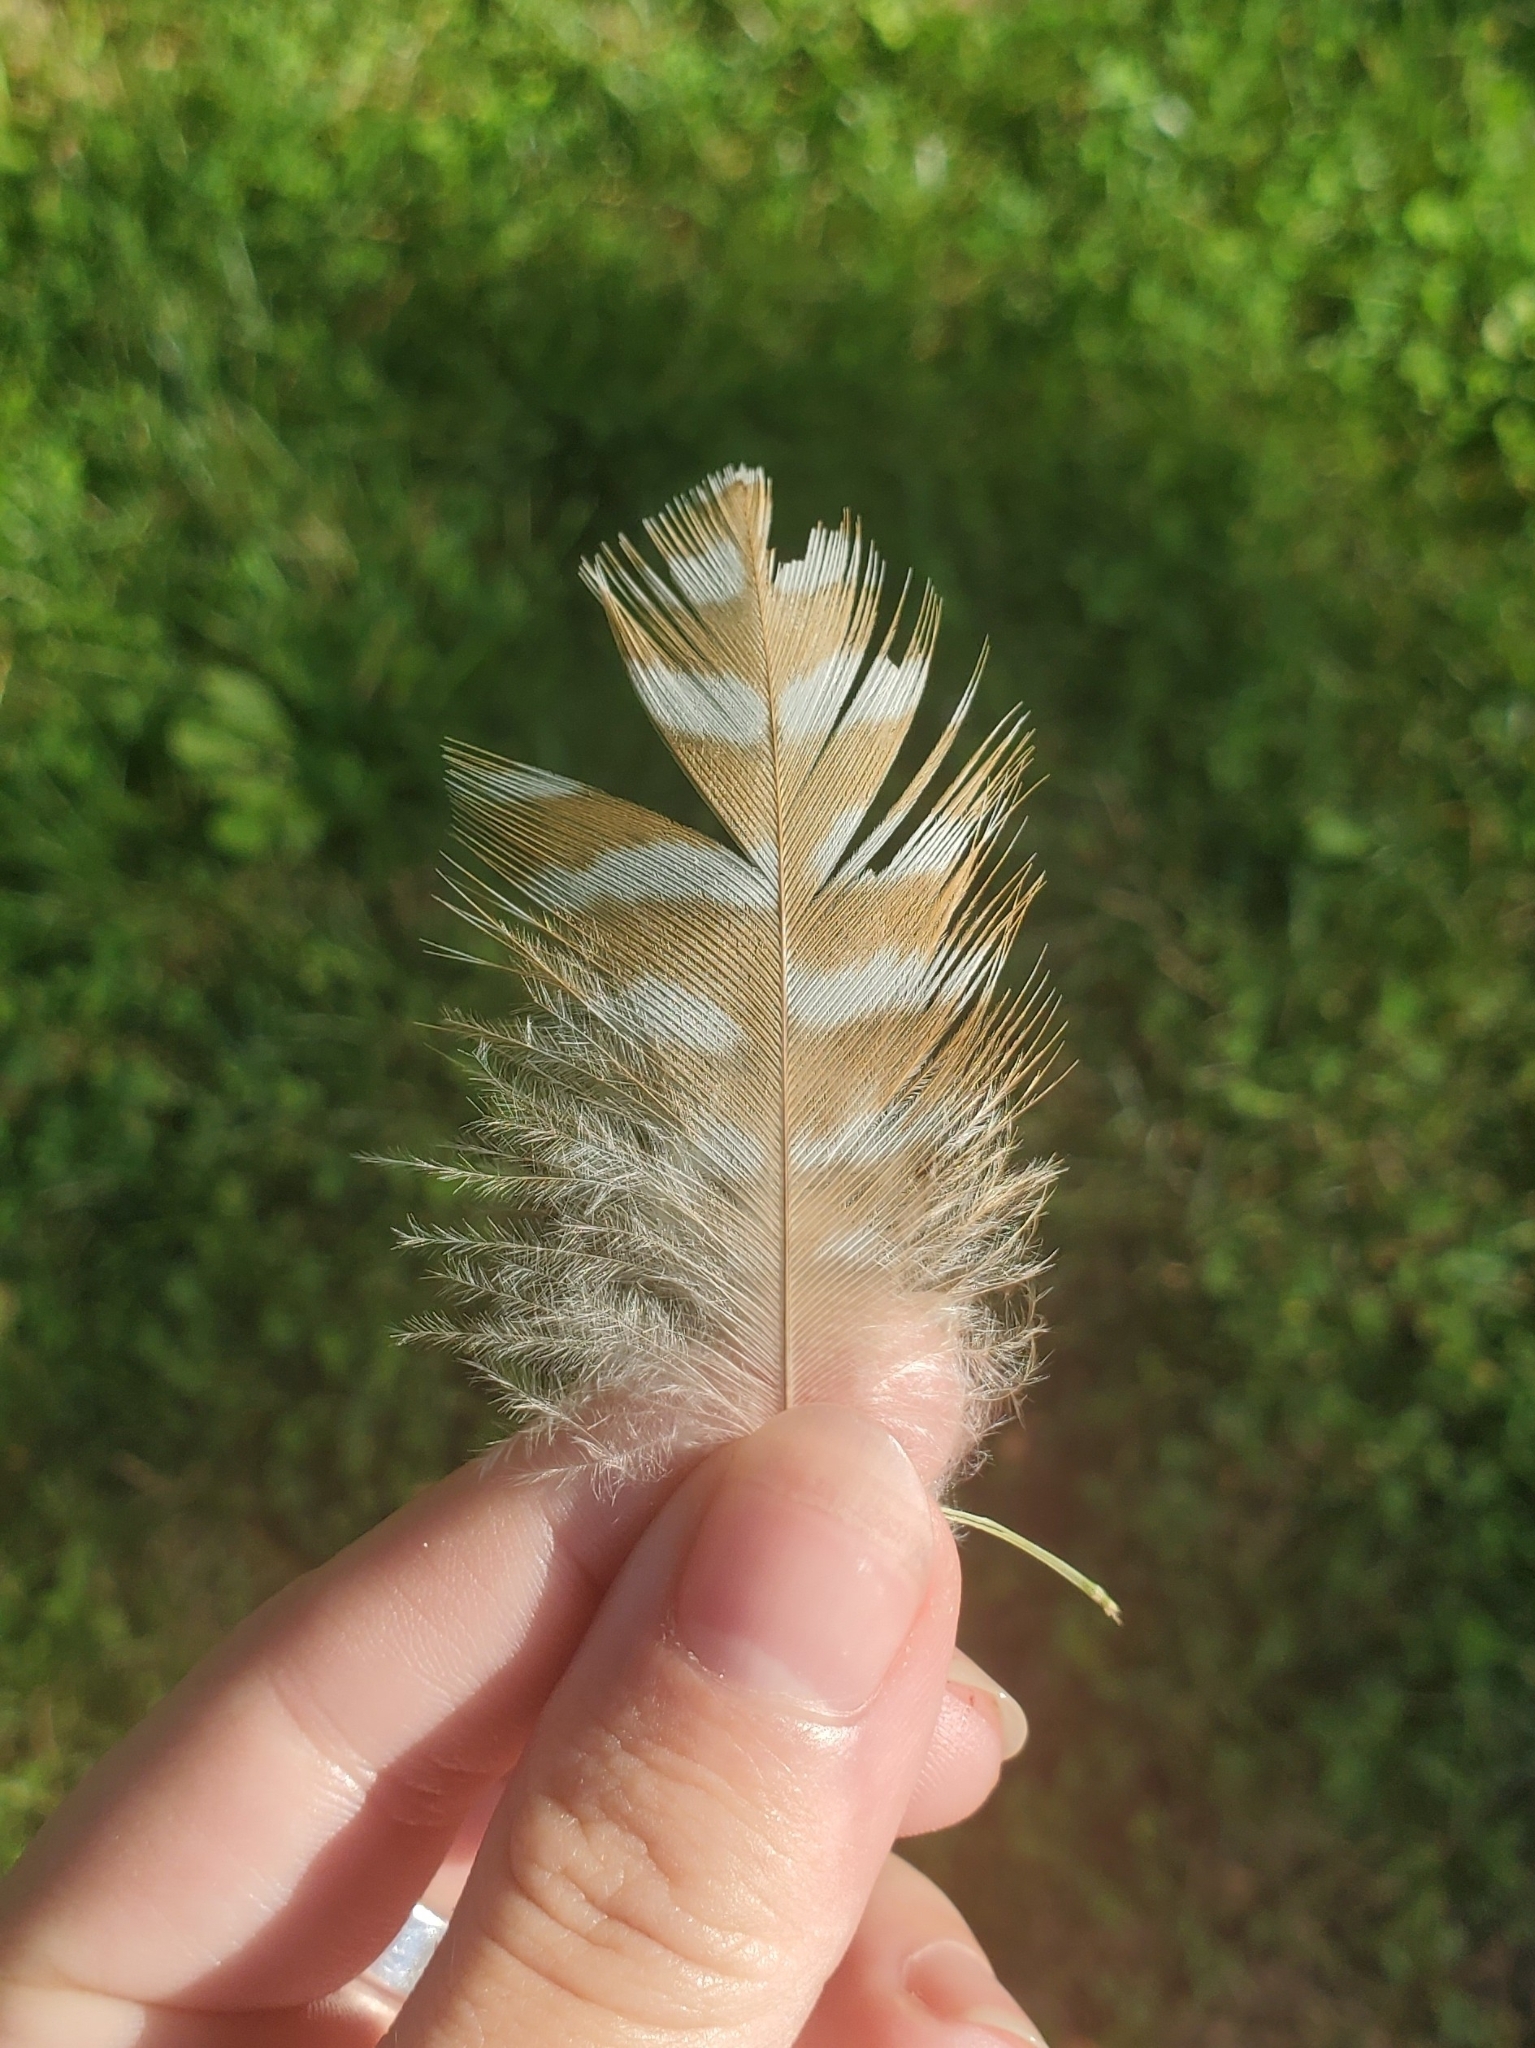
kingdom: Animalia
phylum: Chordata
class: Aves
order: Accipitriformes
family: Accipitridae
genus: Buteo
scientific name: Buteo lineatus
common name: Red-shouldered hawk
